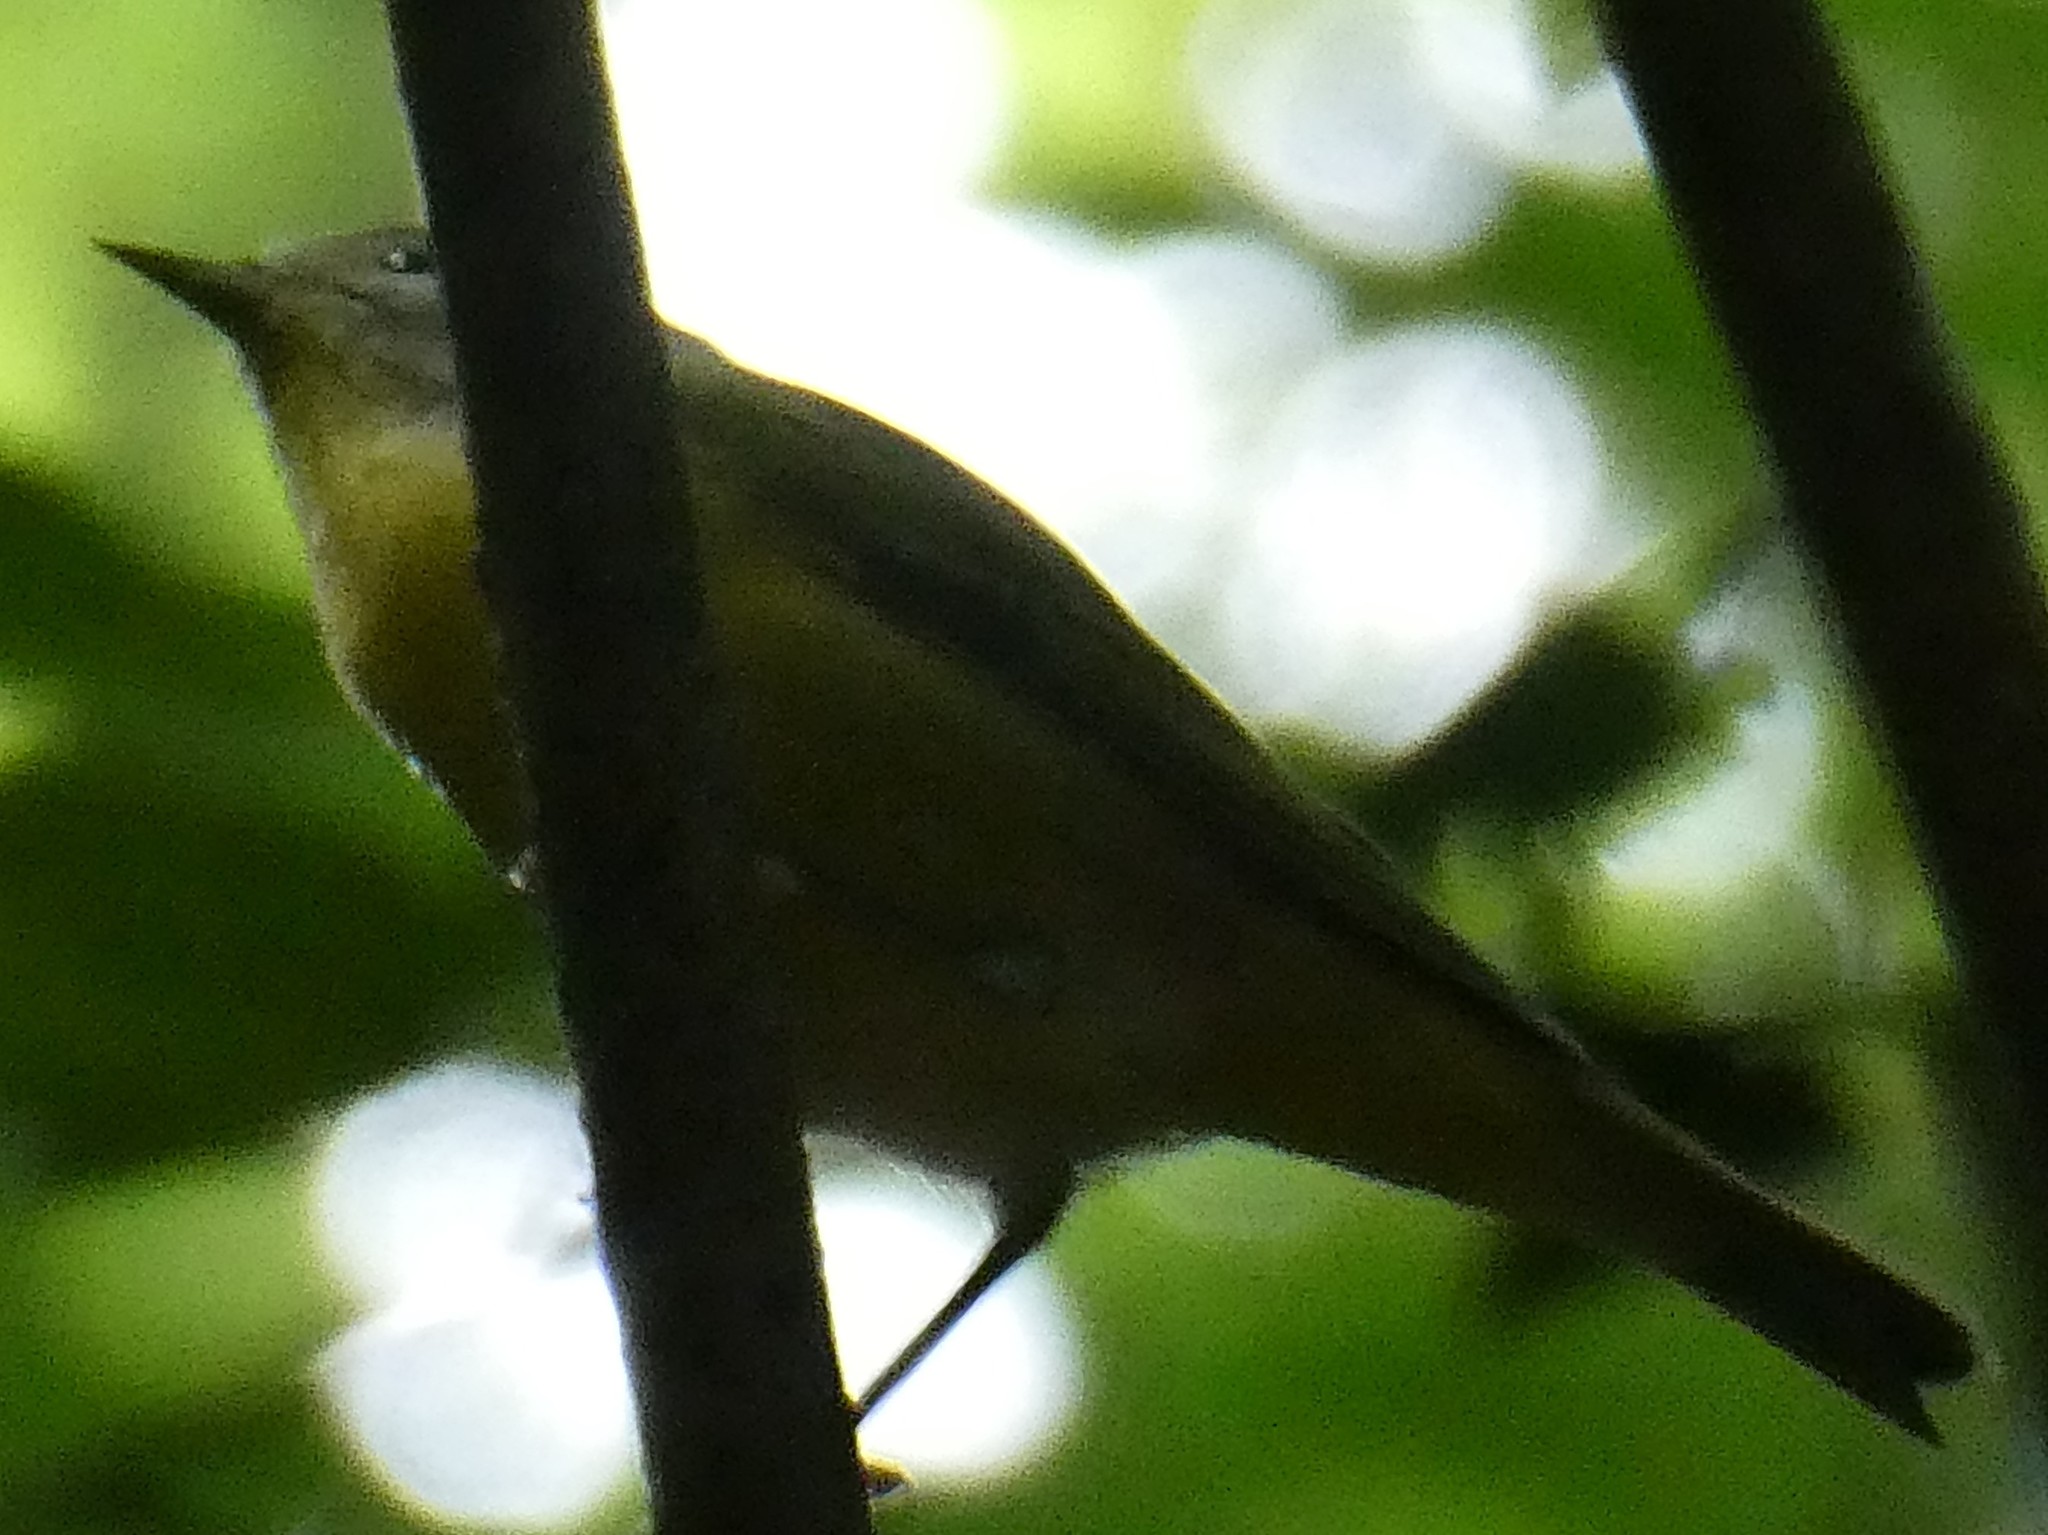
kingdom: Animalia
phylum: Chordata
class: Aves
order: Passeriformes
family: Parulidae
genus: Leiothlypis
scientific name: Leiothlypis ruficapilla
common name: Nashville warbler
